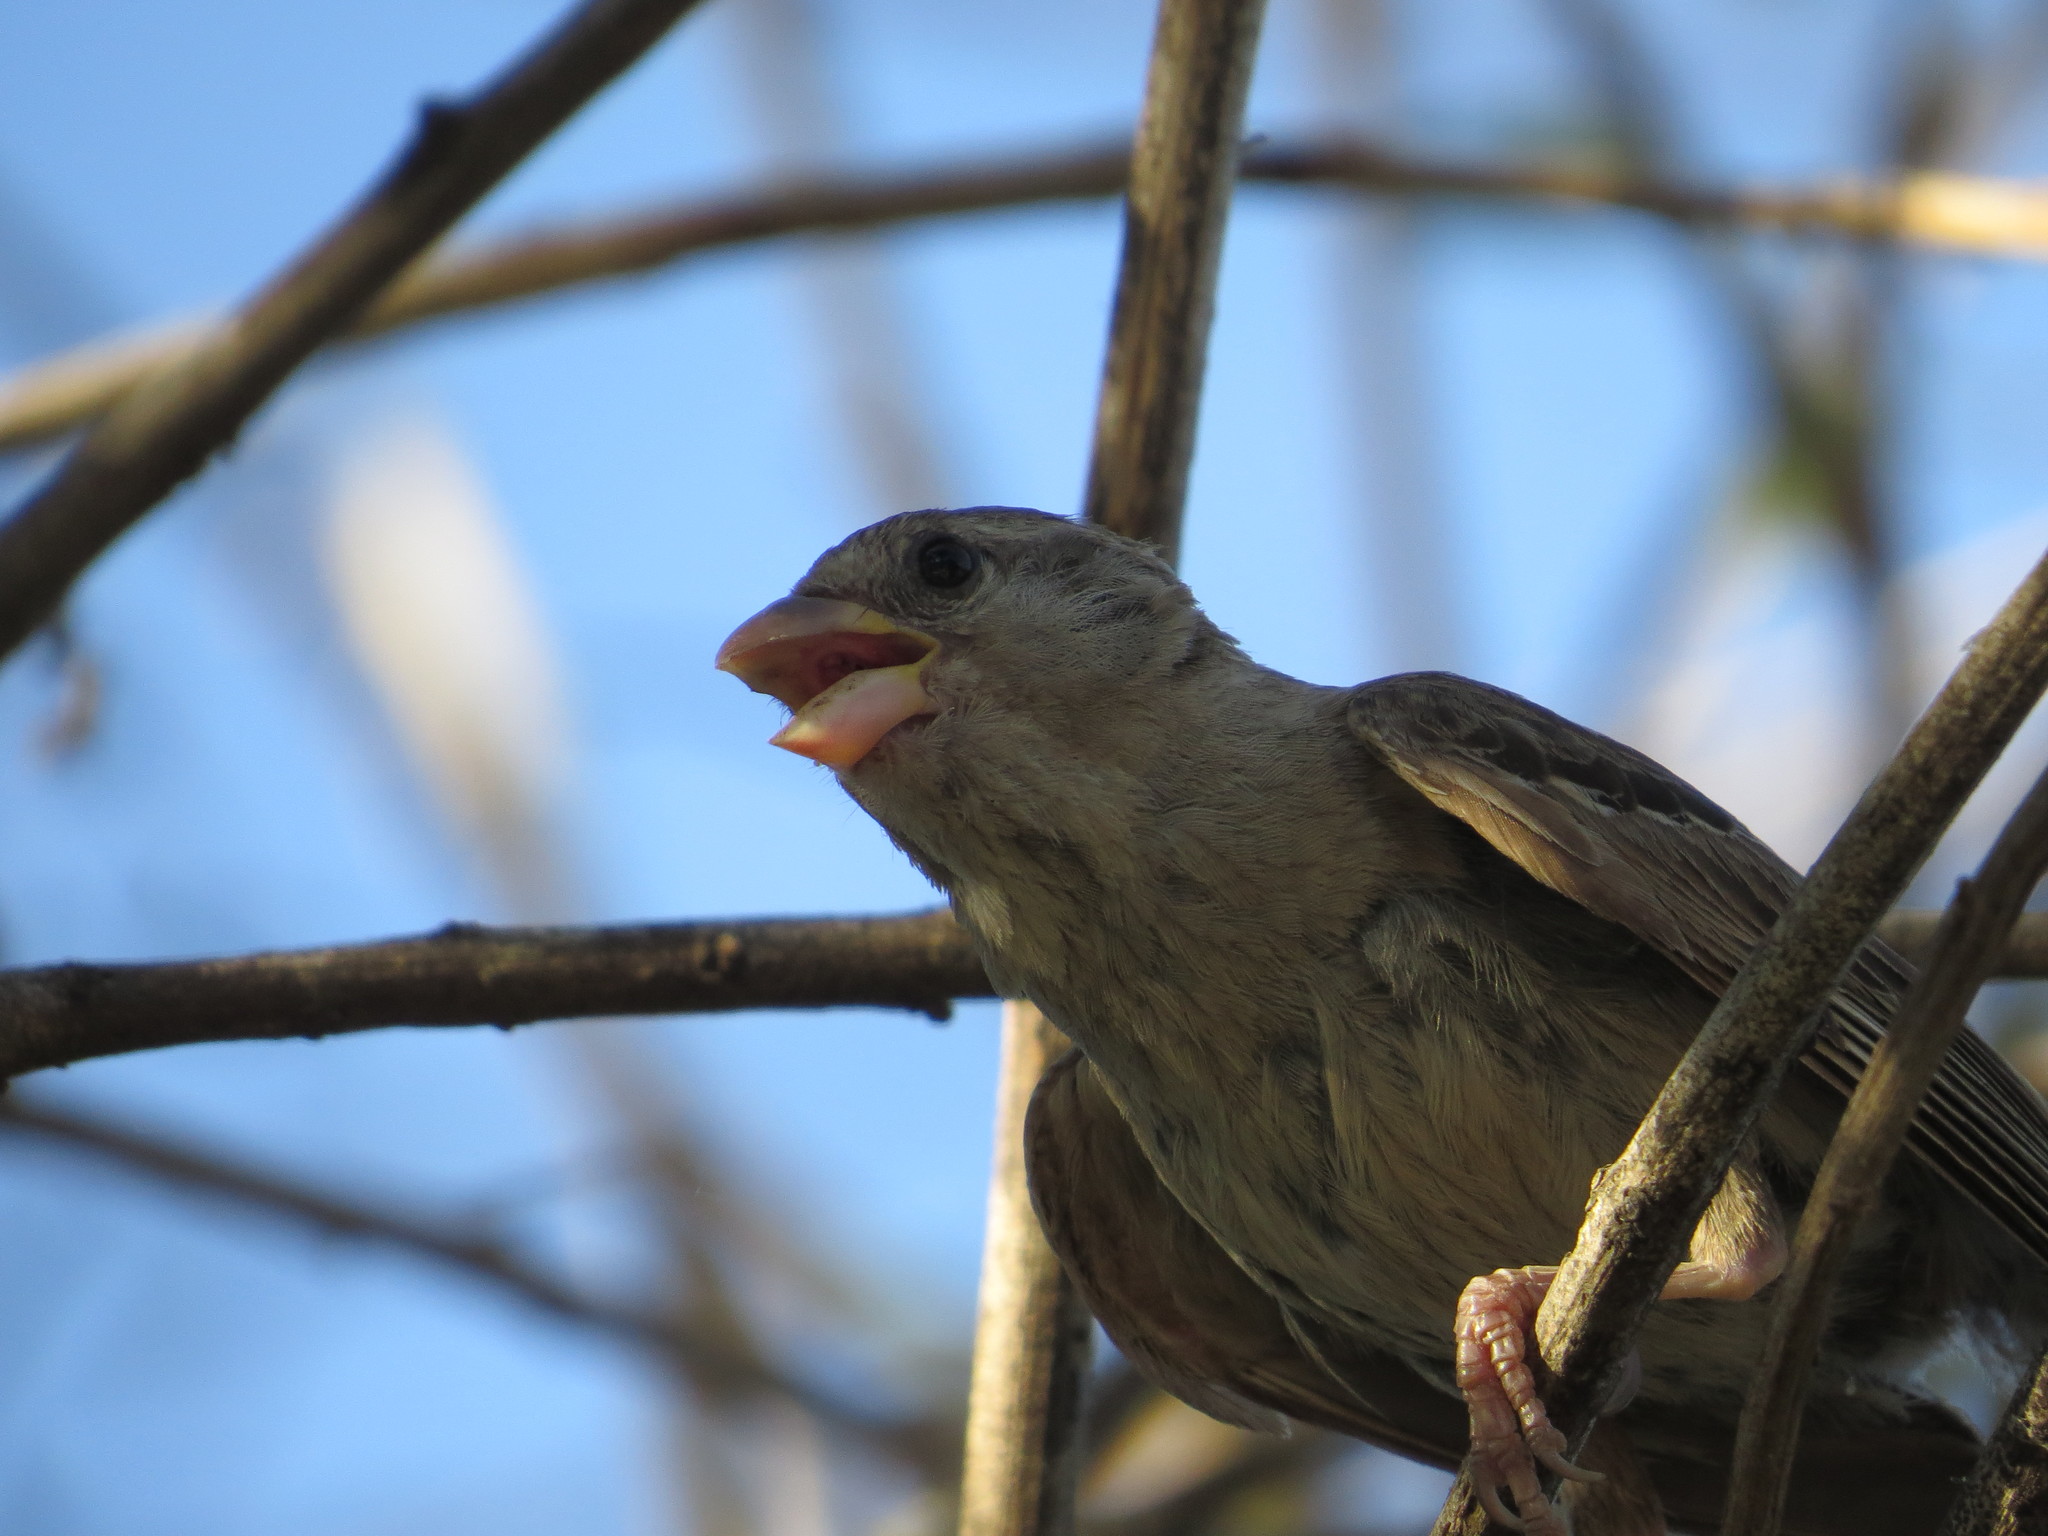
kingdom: Animalia
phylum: Chordata
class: Aves
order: Passeriformes
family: Passeridae
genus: Passer
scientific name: Passer domesticus
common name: House sparrow
